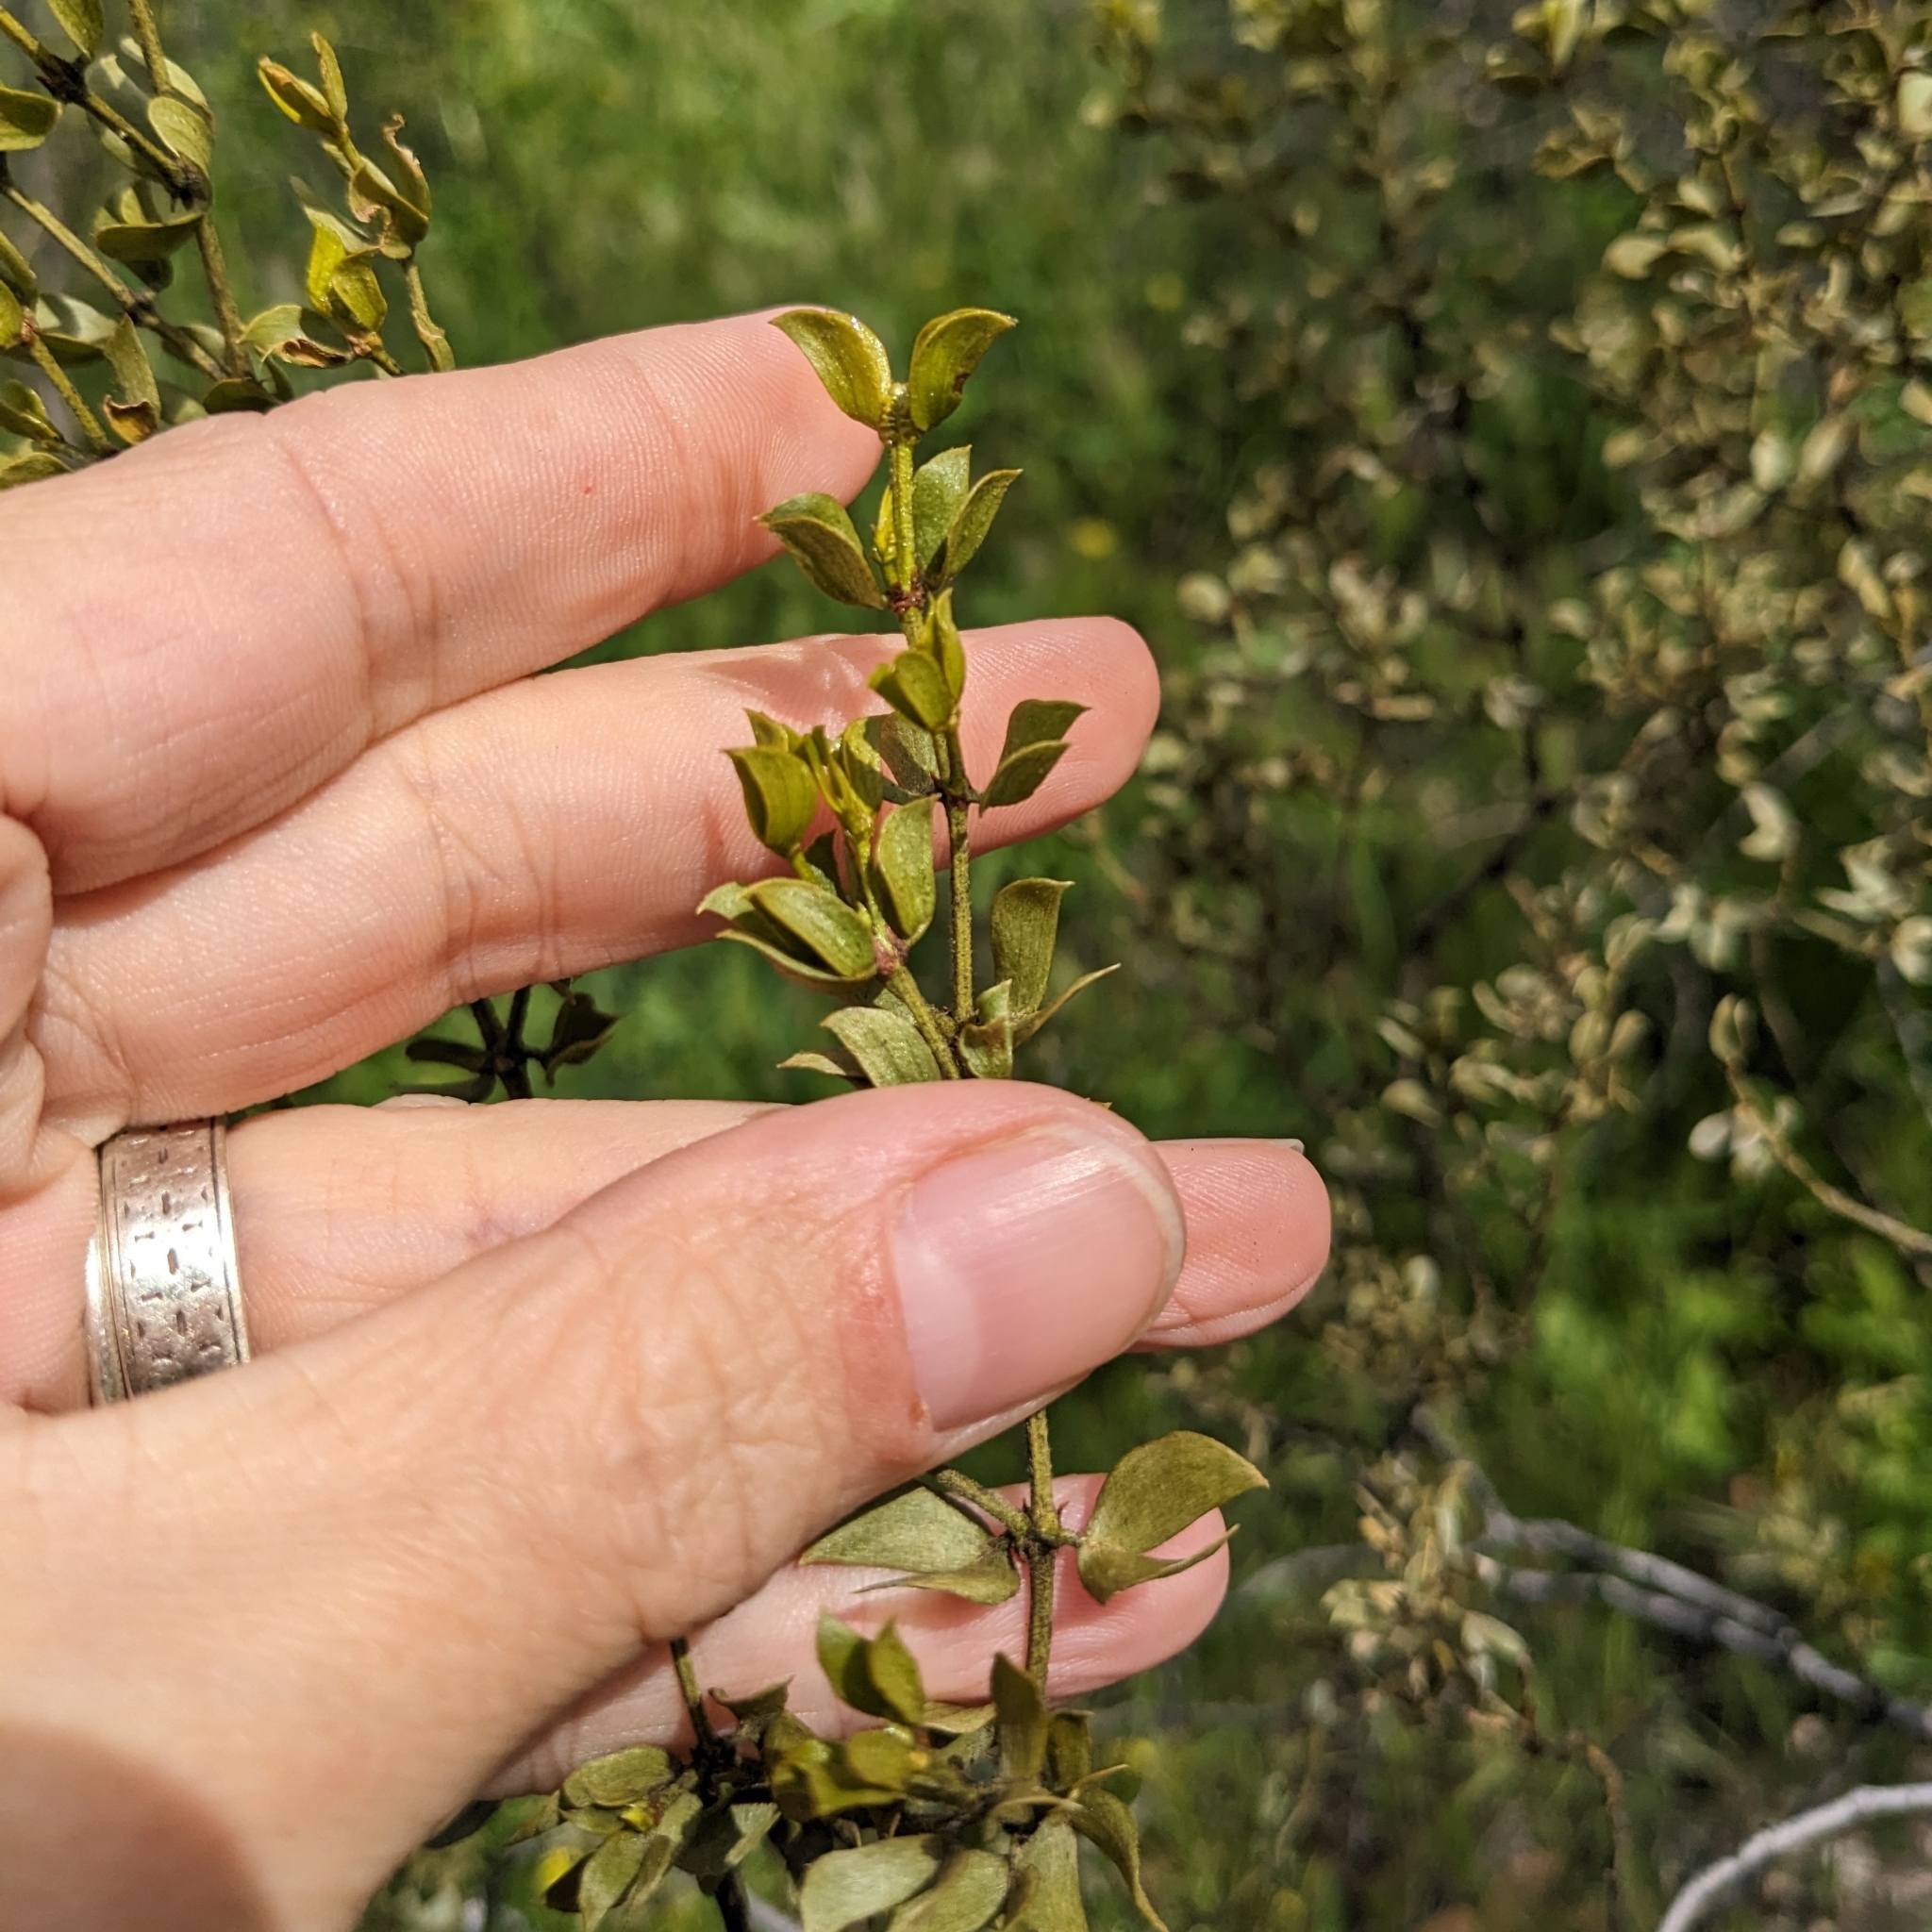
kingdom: Plantae
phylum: Tracheophyta
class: Magnoliopsida
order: Zygophyllales
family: Zygophyllaceae
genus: Larrea
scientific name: Larrea tridentata
